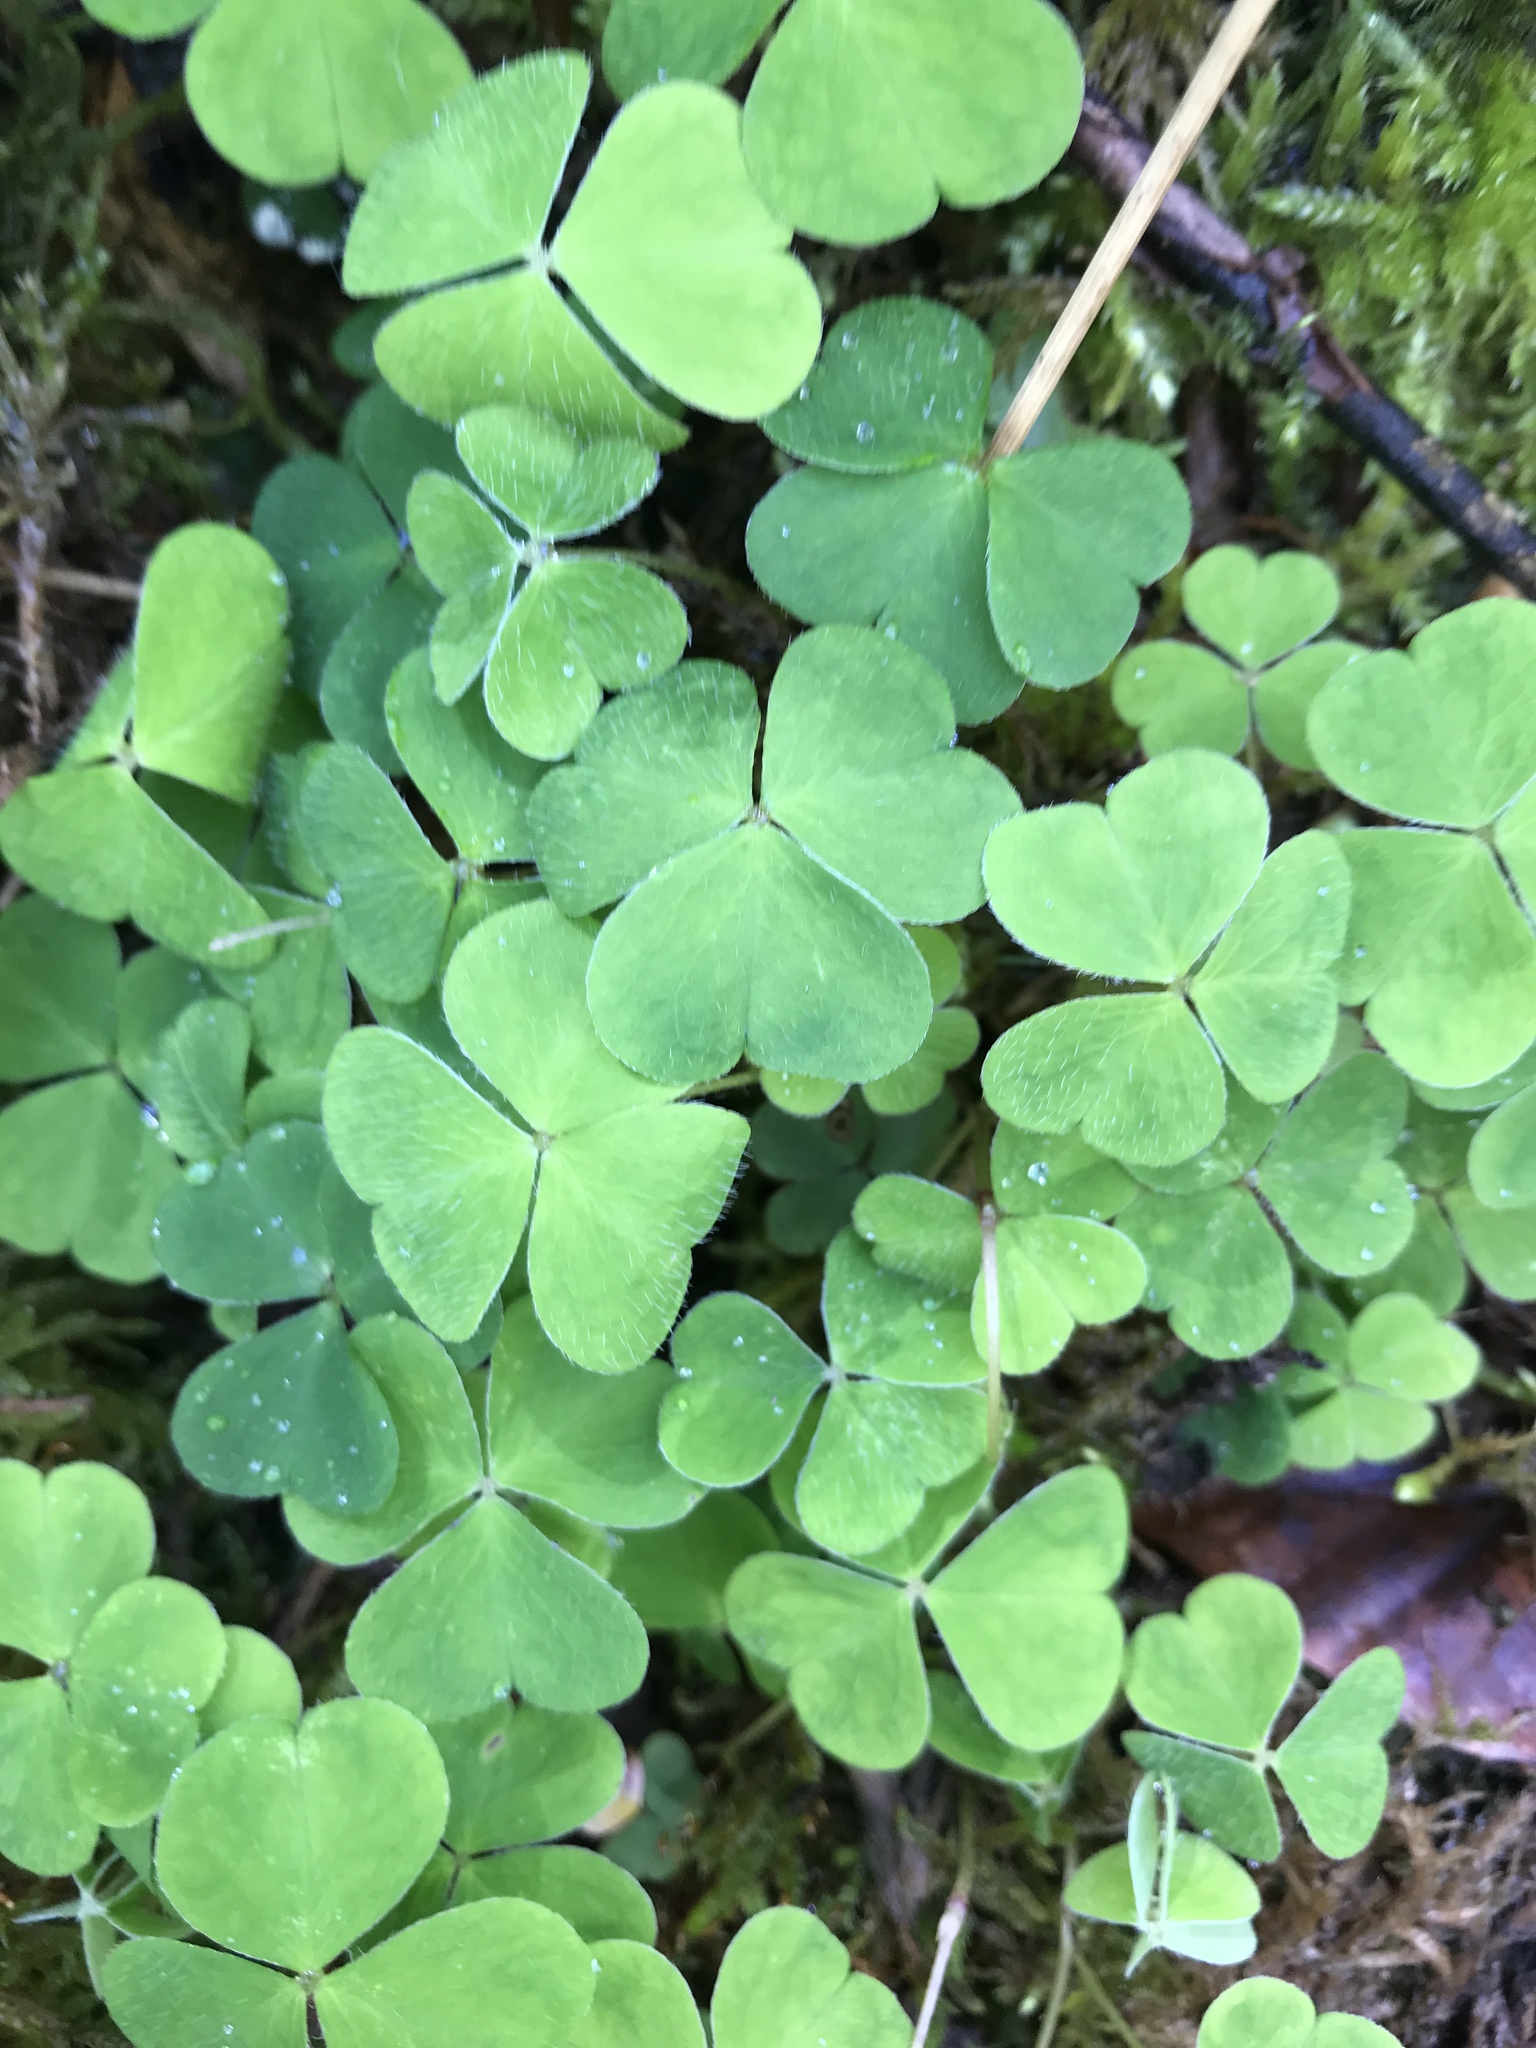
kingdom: Plantae
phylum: Tracheophyta
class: Magnoliopsida
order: Oxalidales
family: Oxalidaceae
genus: Oxalis
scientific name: Oxalis acetosella
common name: Wood-sorrel
